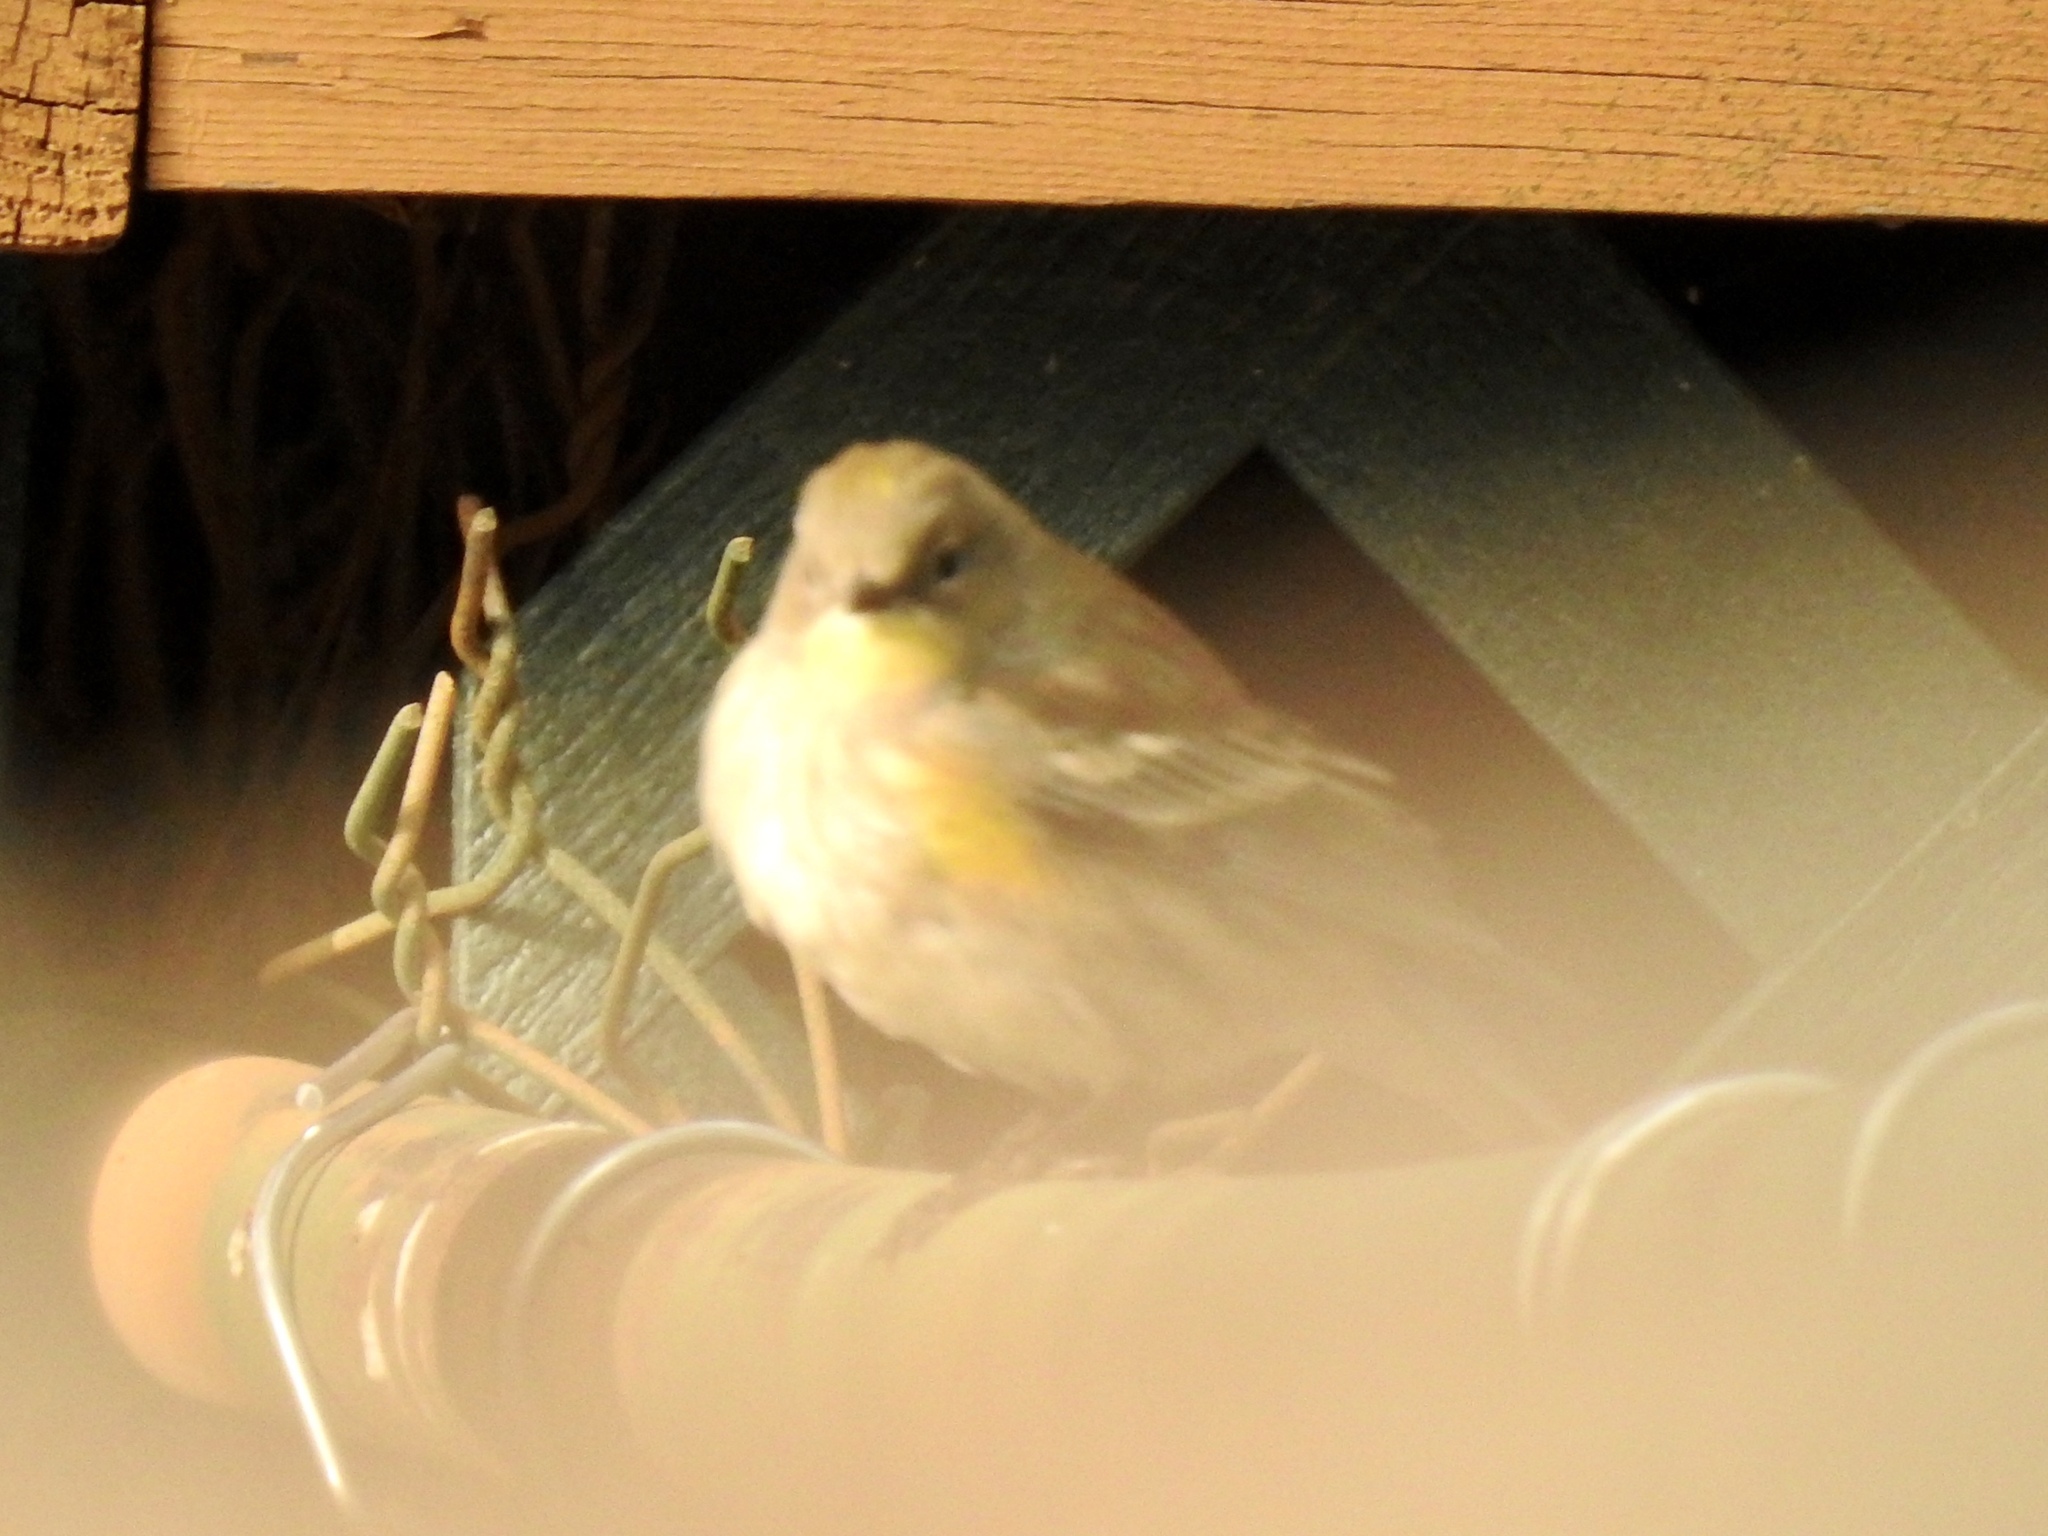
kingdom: Animalia
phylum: Chordata
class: Aves
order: Passeriformes
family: Parulidae
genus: Setophaga
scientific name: Setophaga coronata
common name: Myrtle warbler
